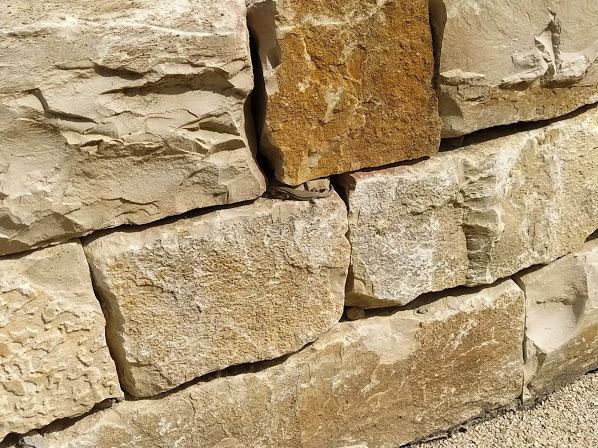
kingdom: Animalia
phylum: Chordata
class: Squamata
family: Lacertidae
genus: Podarcis
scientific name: Podarcis muralis
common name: Common wall lizard
